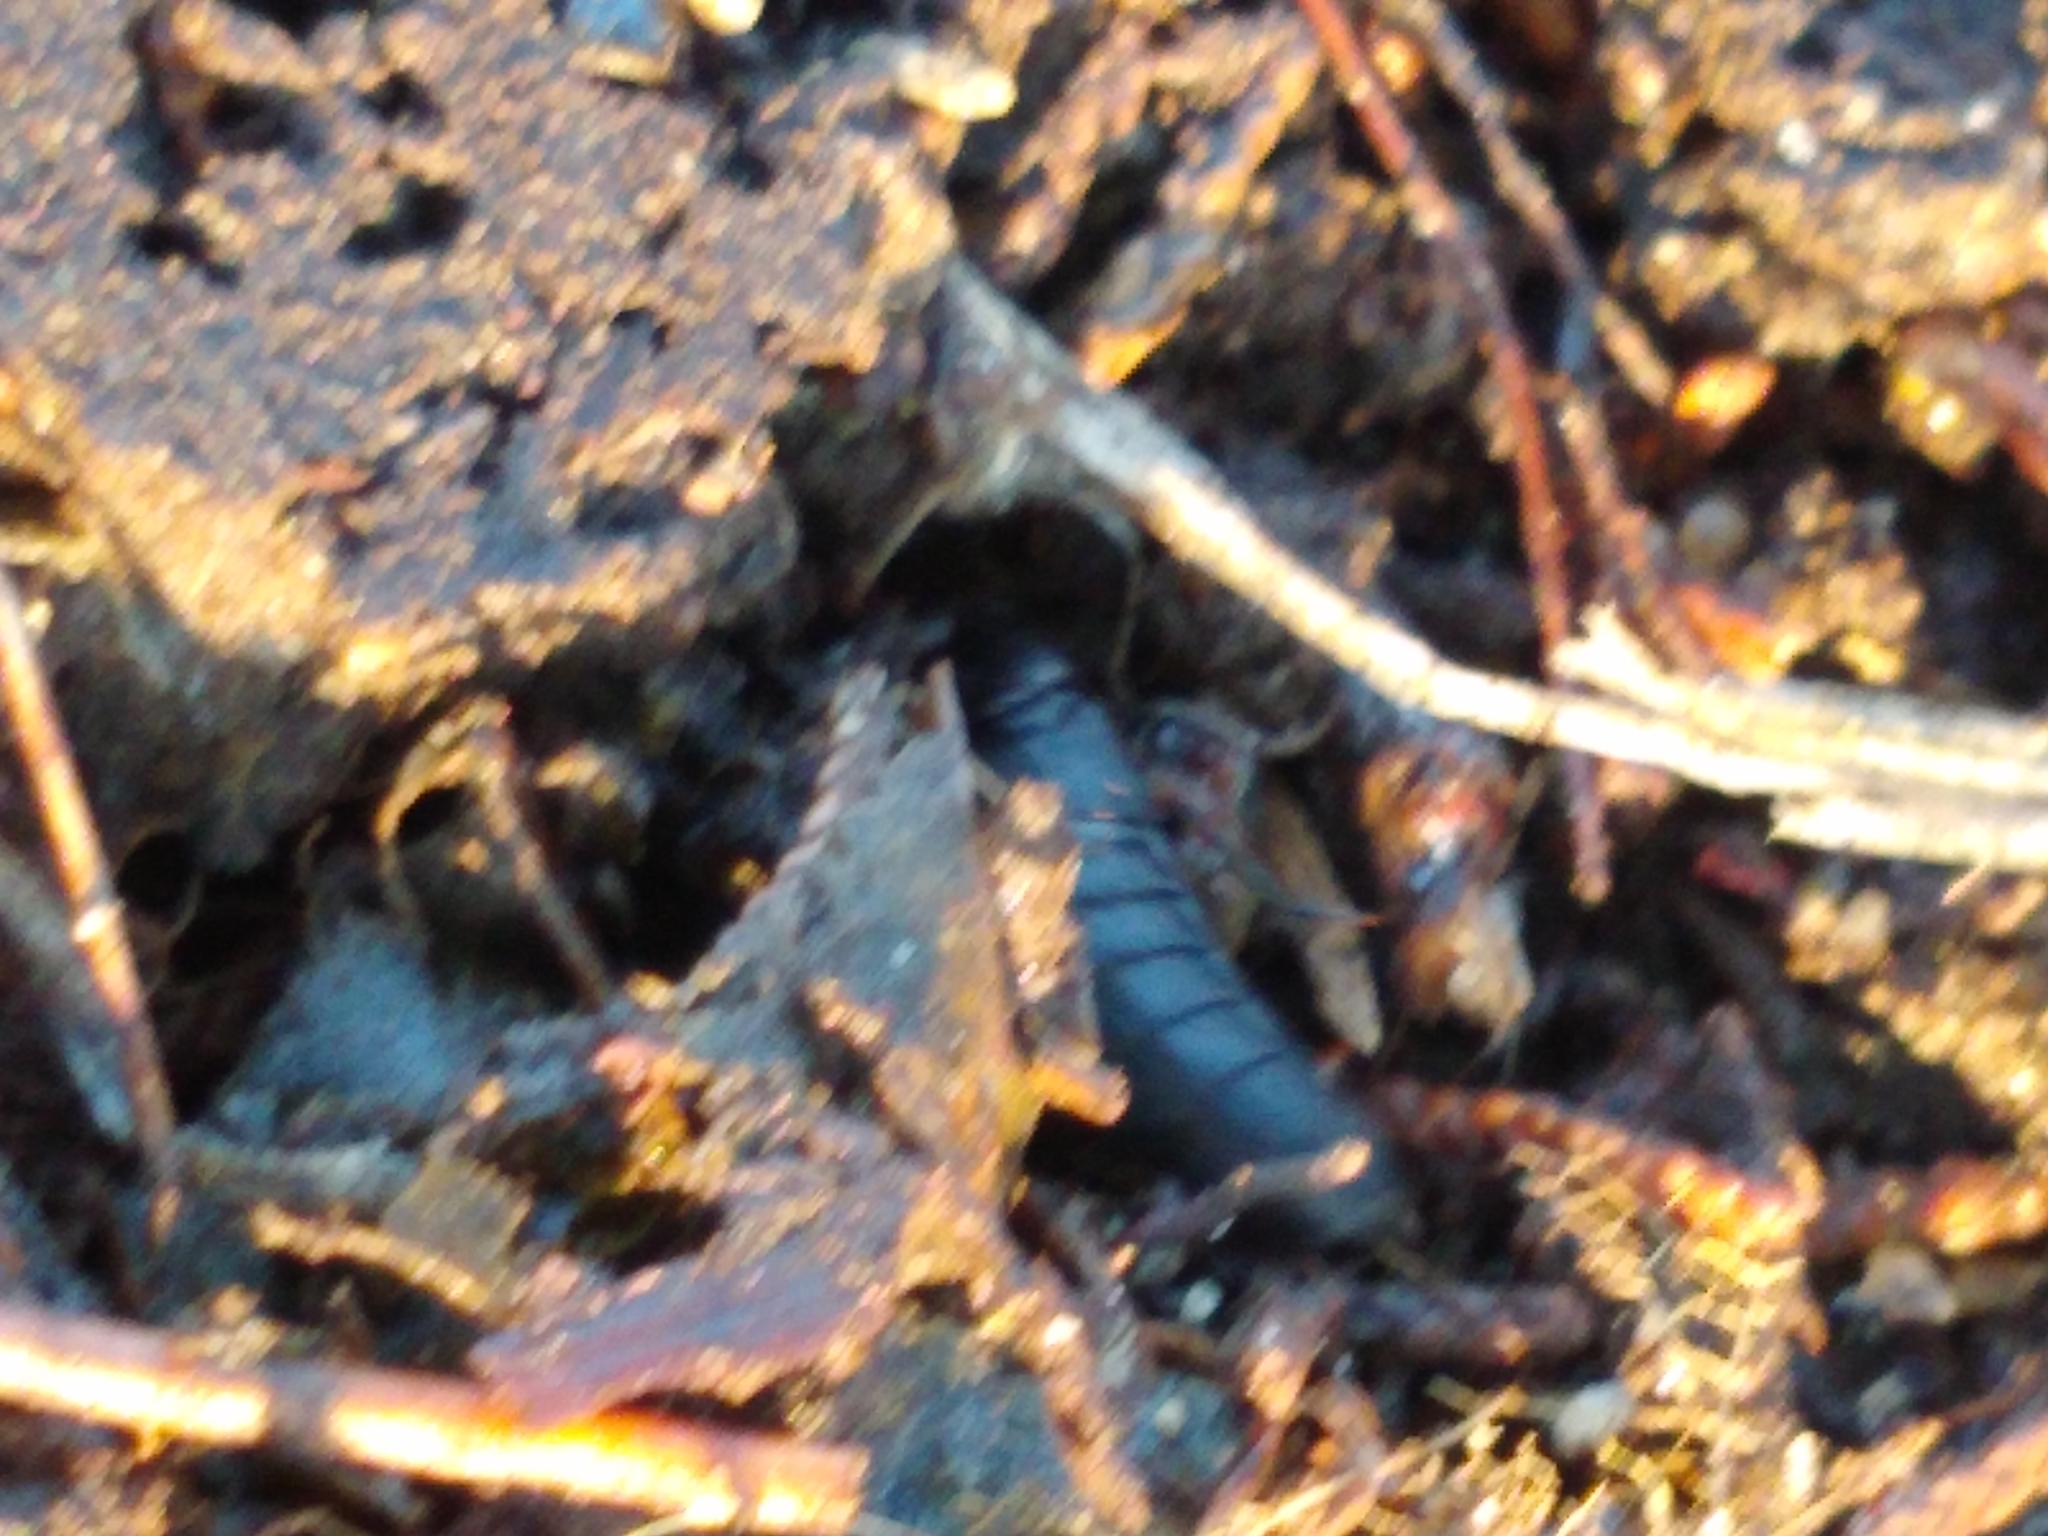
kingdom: Animalia
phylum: Arthropoda
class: Insecta
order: Coleoptera
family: Staphylinidae
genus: Ocypus
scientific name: Ocypus nitens
